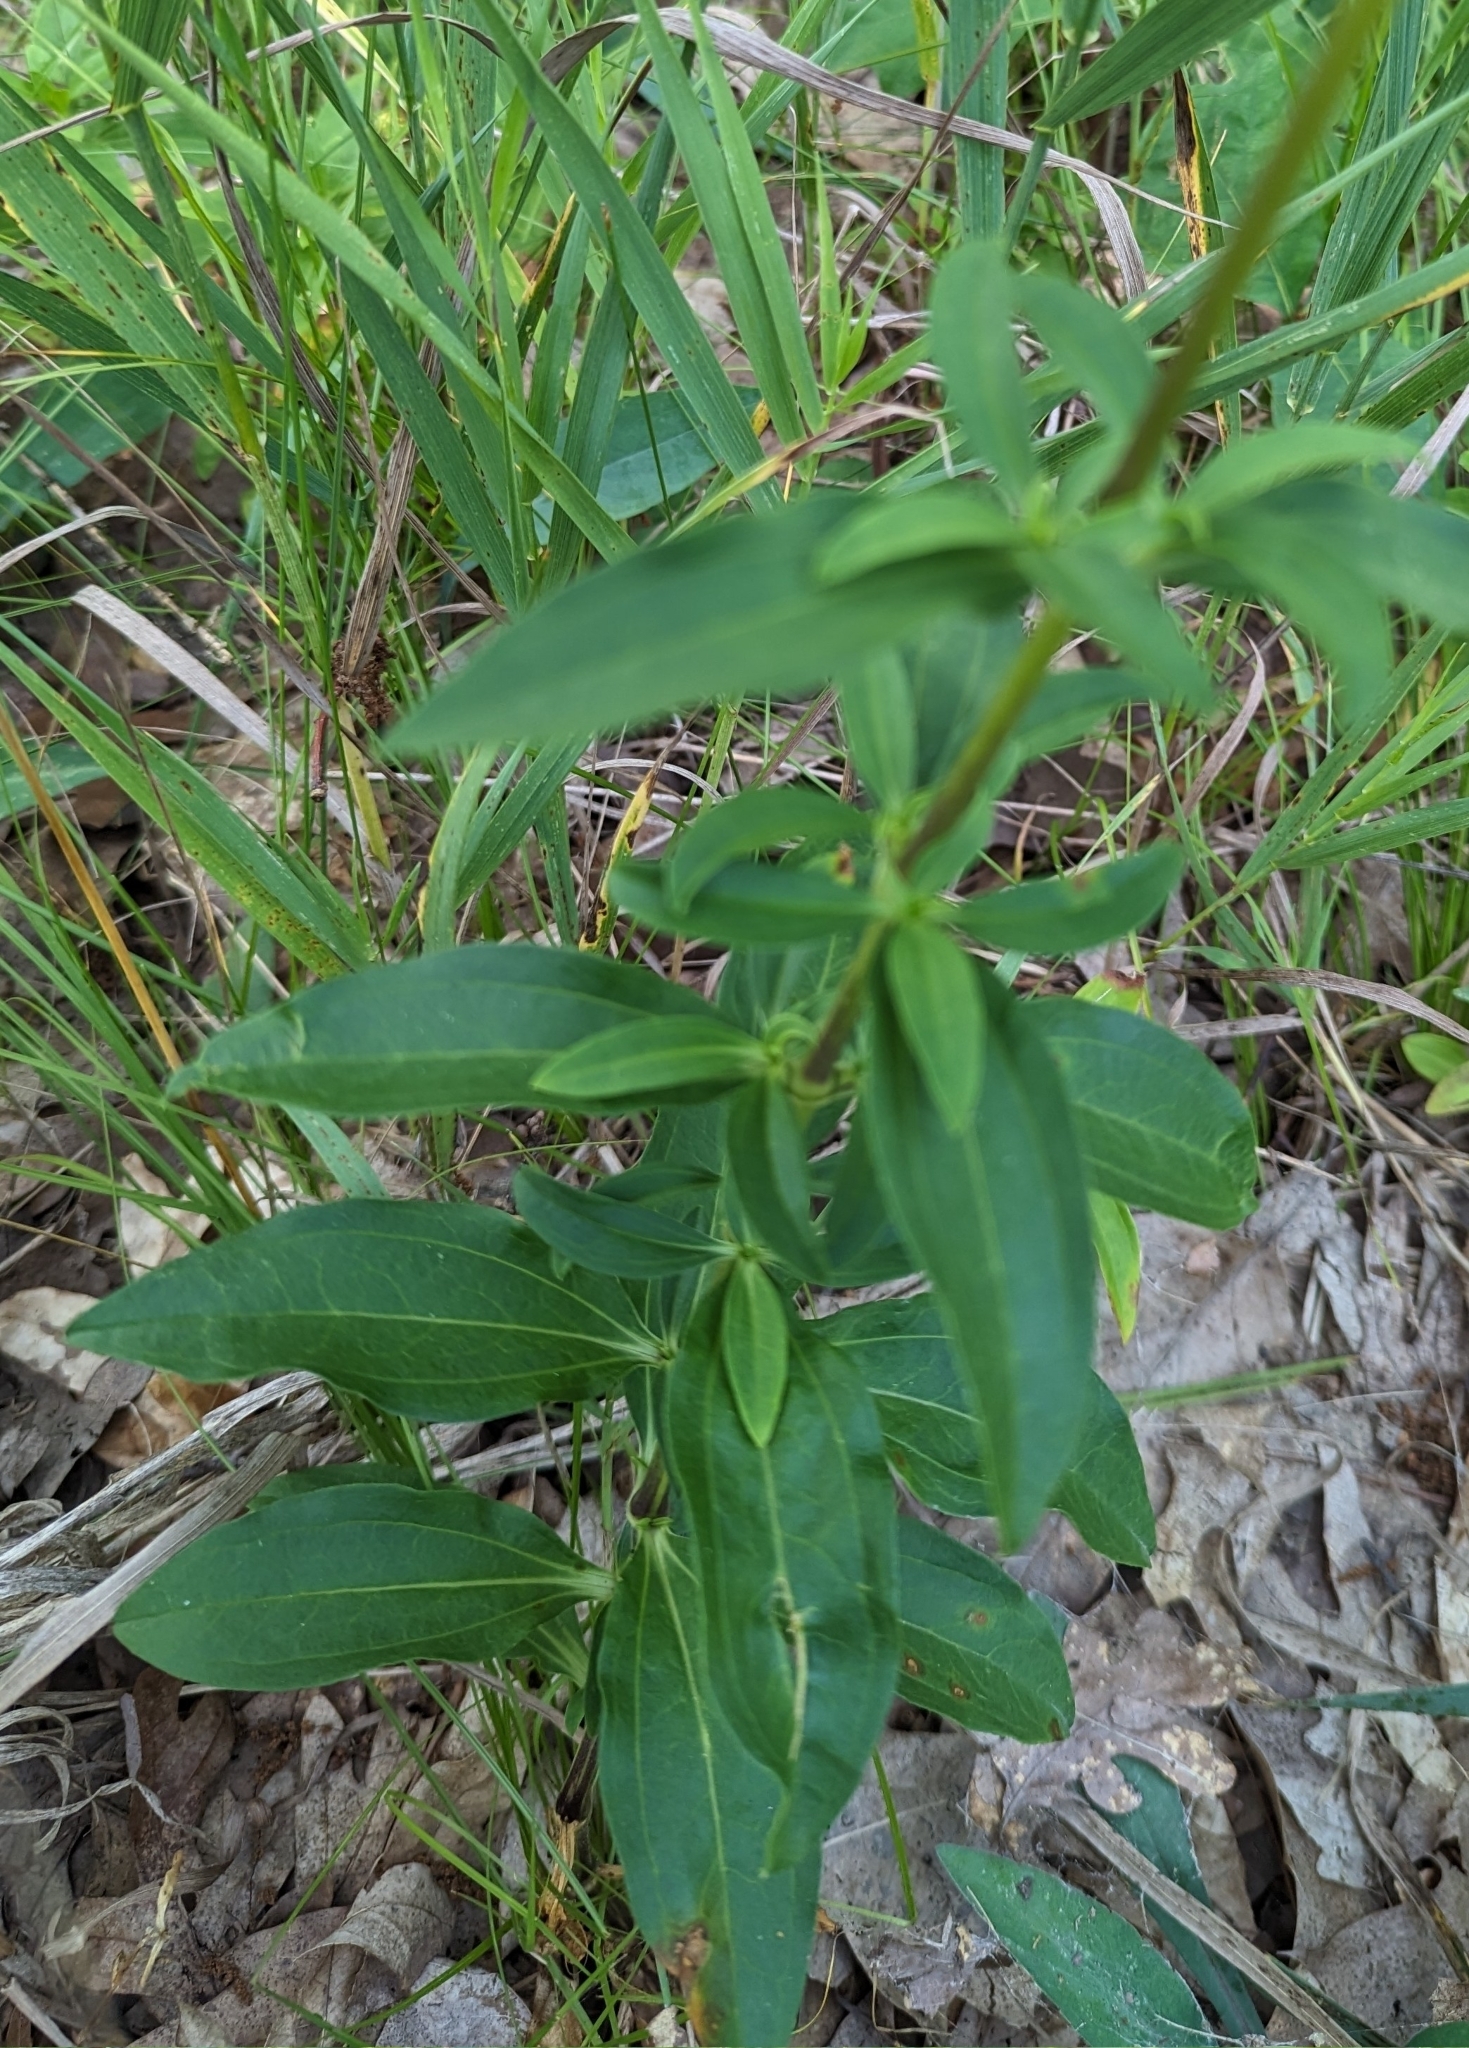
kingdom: Plantae
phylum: Tracheophyta
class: Magnoliopsida
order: Caryophyllales
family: Caryophyllaceae
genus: Saponaria
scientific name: Saponaria officinalis
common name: Soapwort
